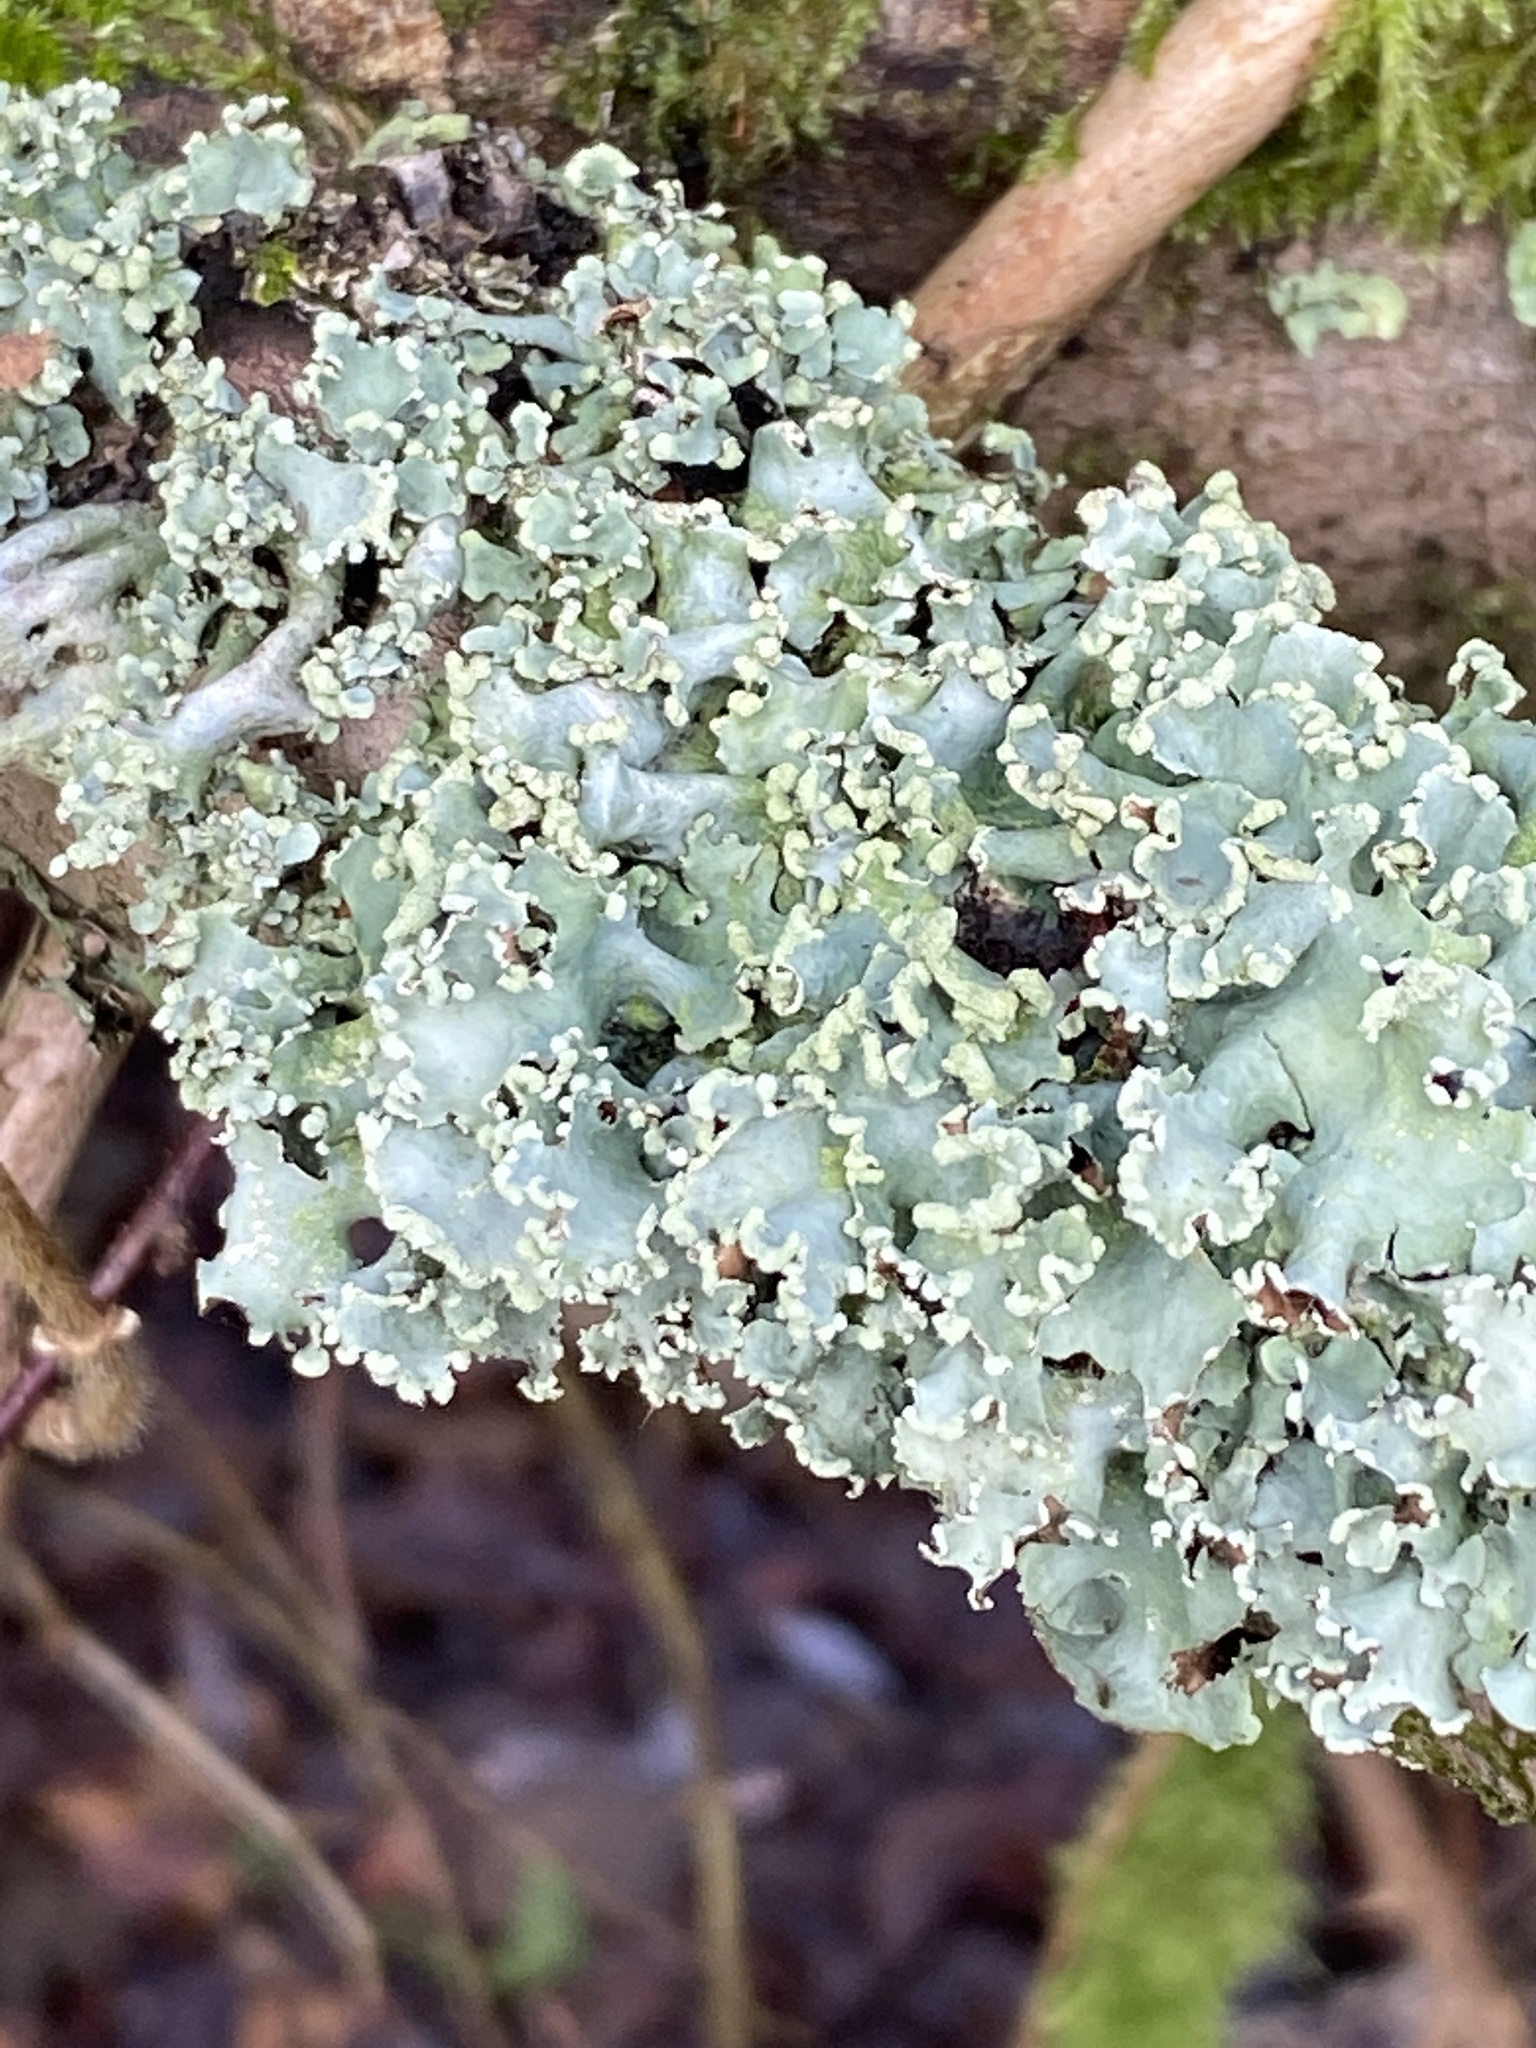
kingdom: Fungi
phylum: Ascomycota
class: Lecanoromycetes
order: Lecanorales
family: Parmeliaceae
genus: Parmotrema
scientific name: Parmotrema perlatum
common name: Black stone flower
